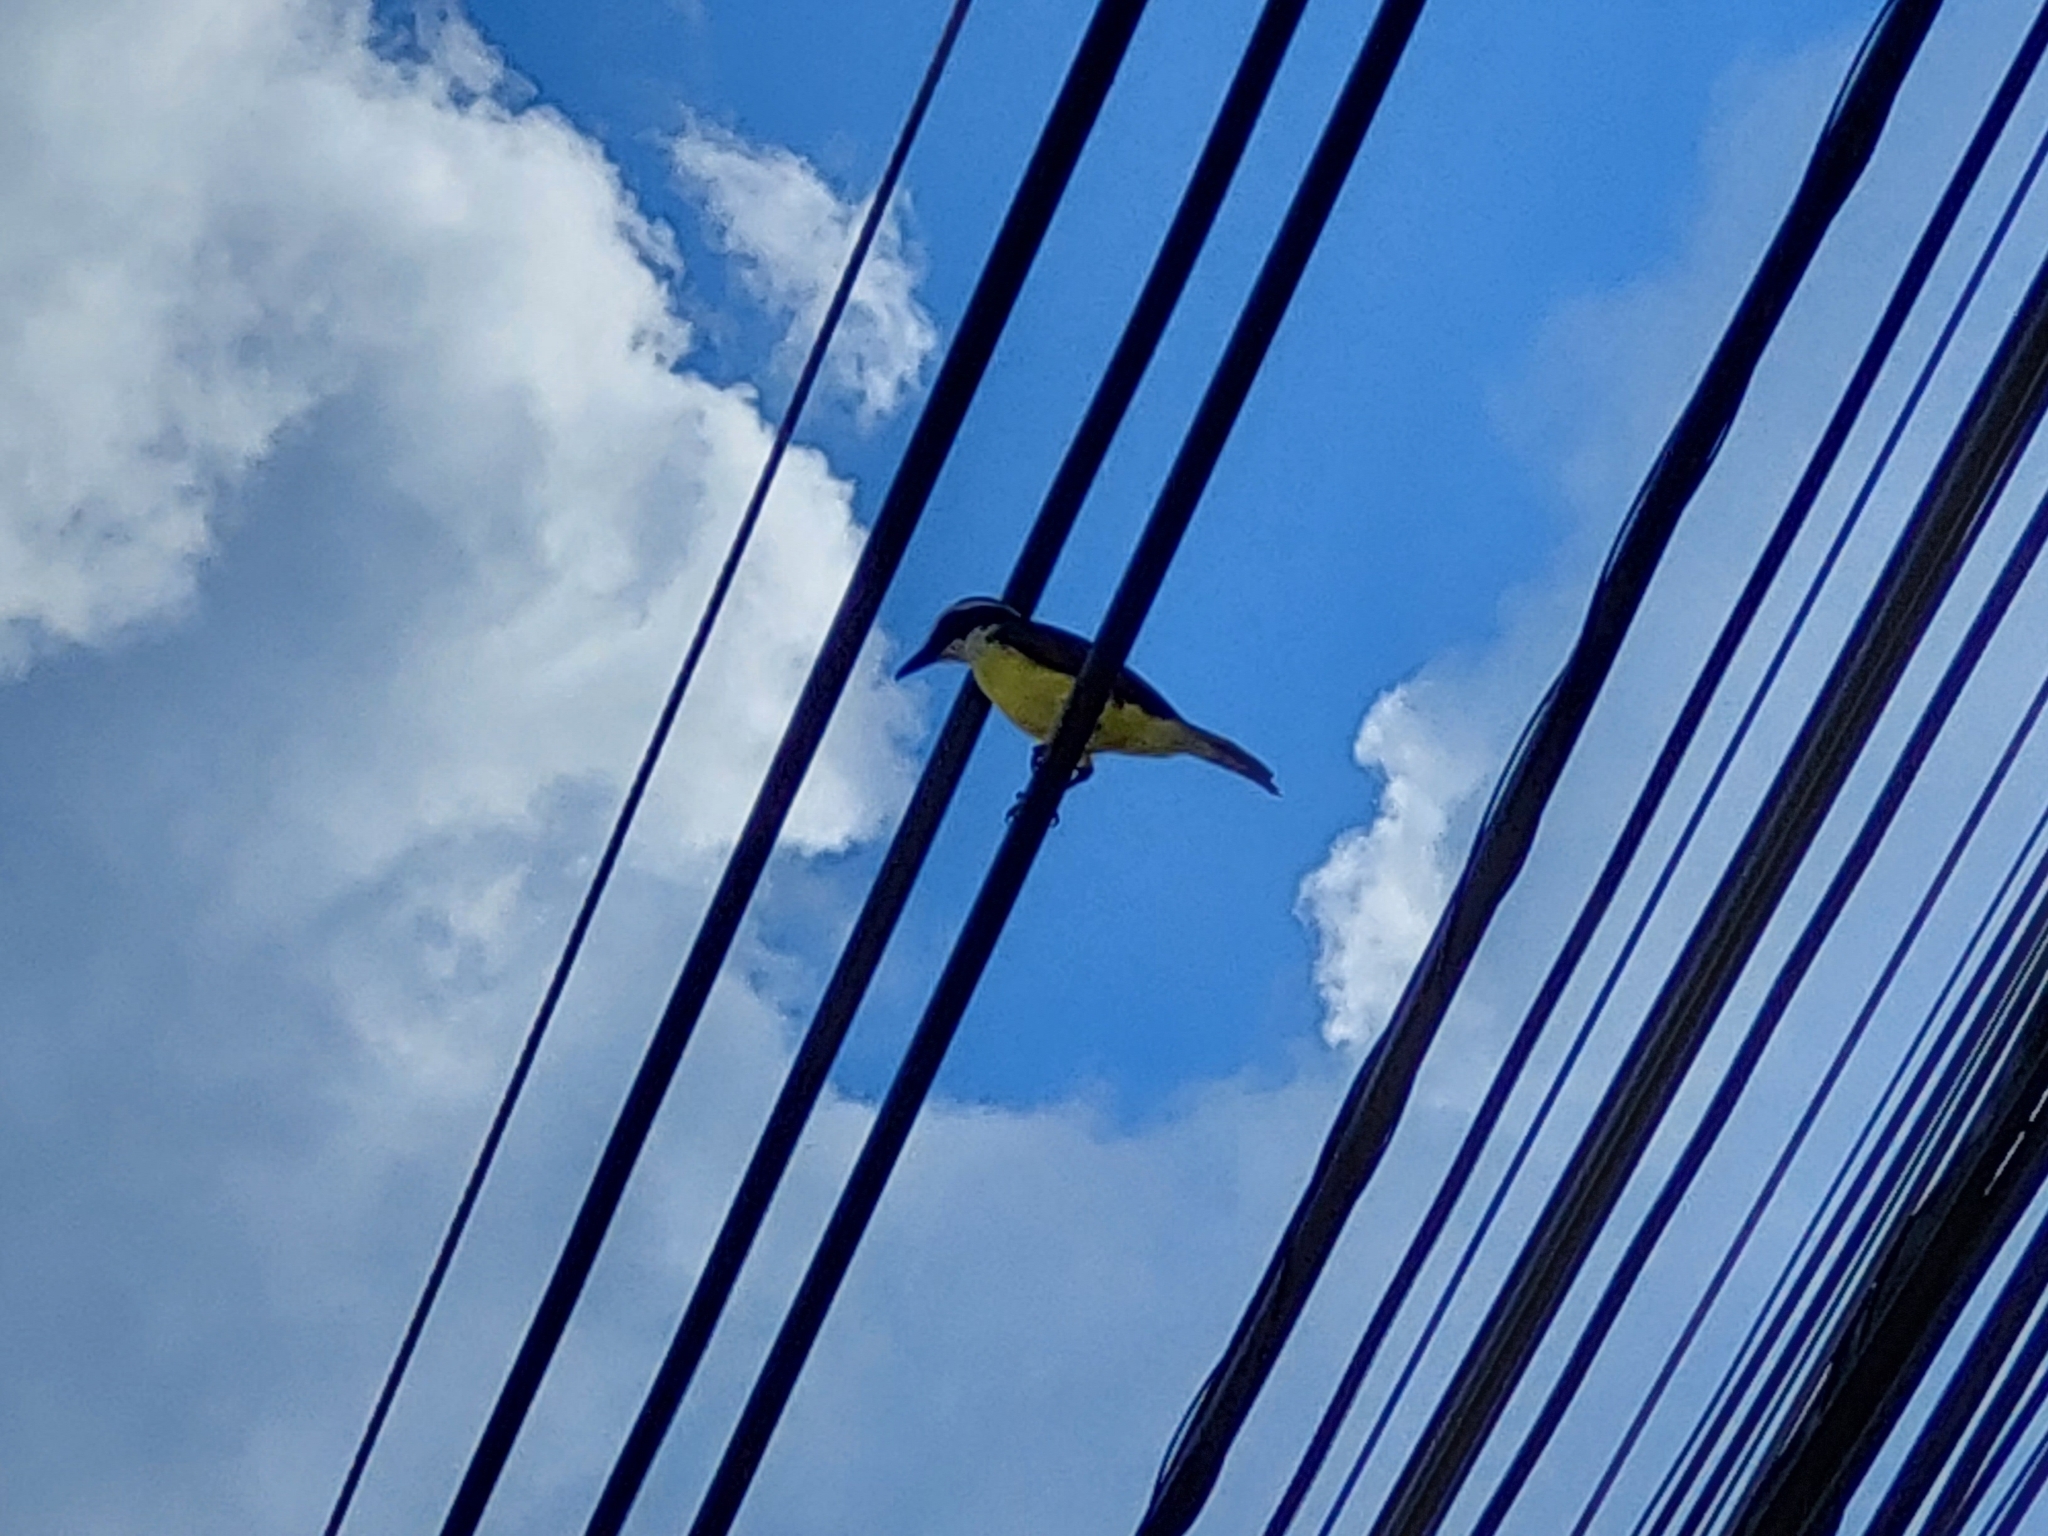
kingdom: Animalia
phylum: Chordata
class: Aves
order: Passeriformes
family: Tyrannidae
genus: Pitangus
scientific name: Pitangus sulphuratus
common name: Great kiskadee
